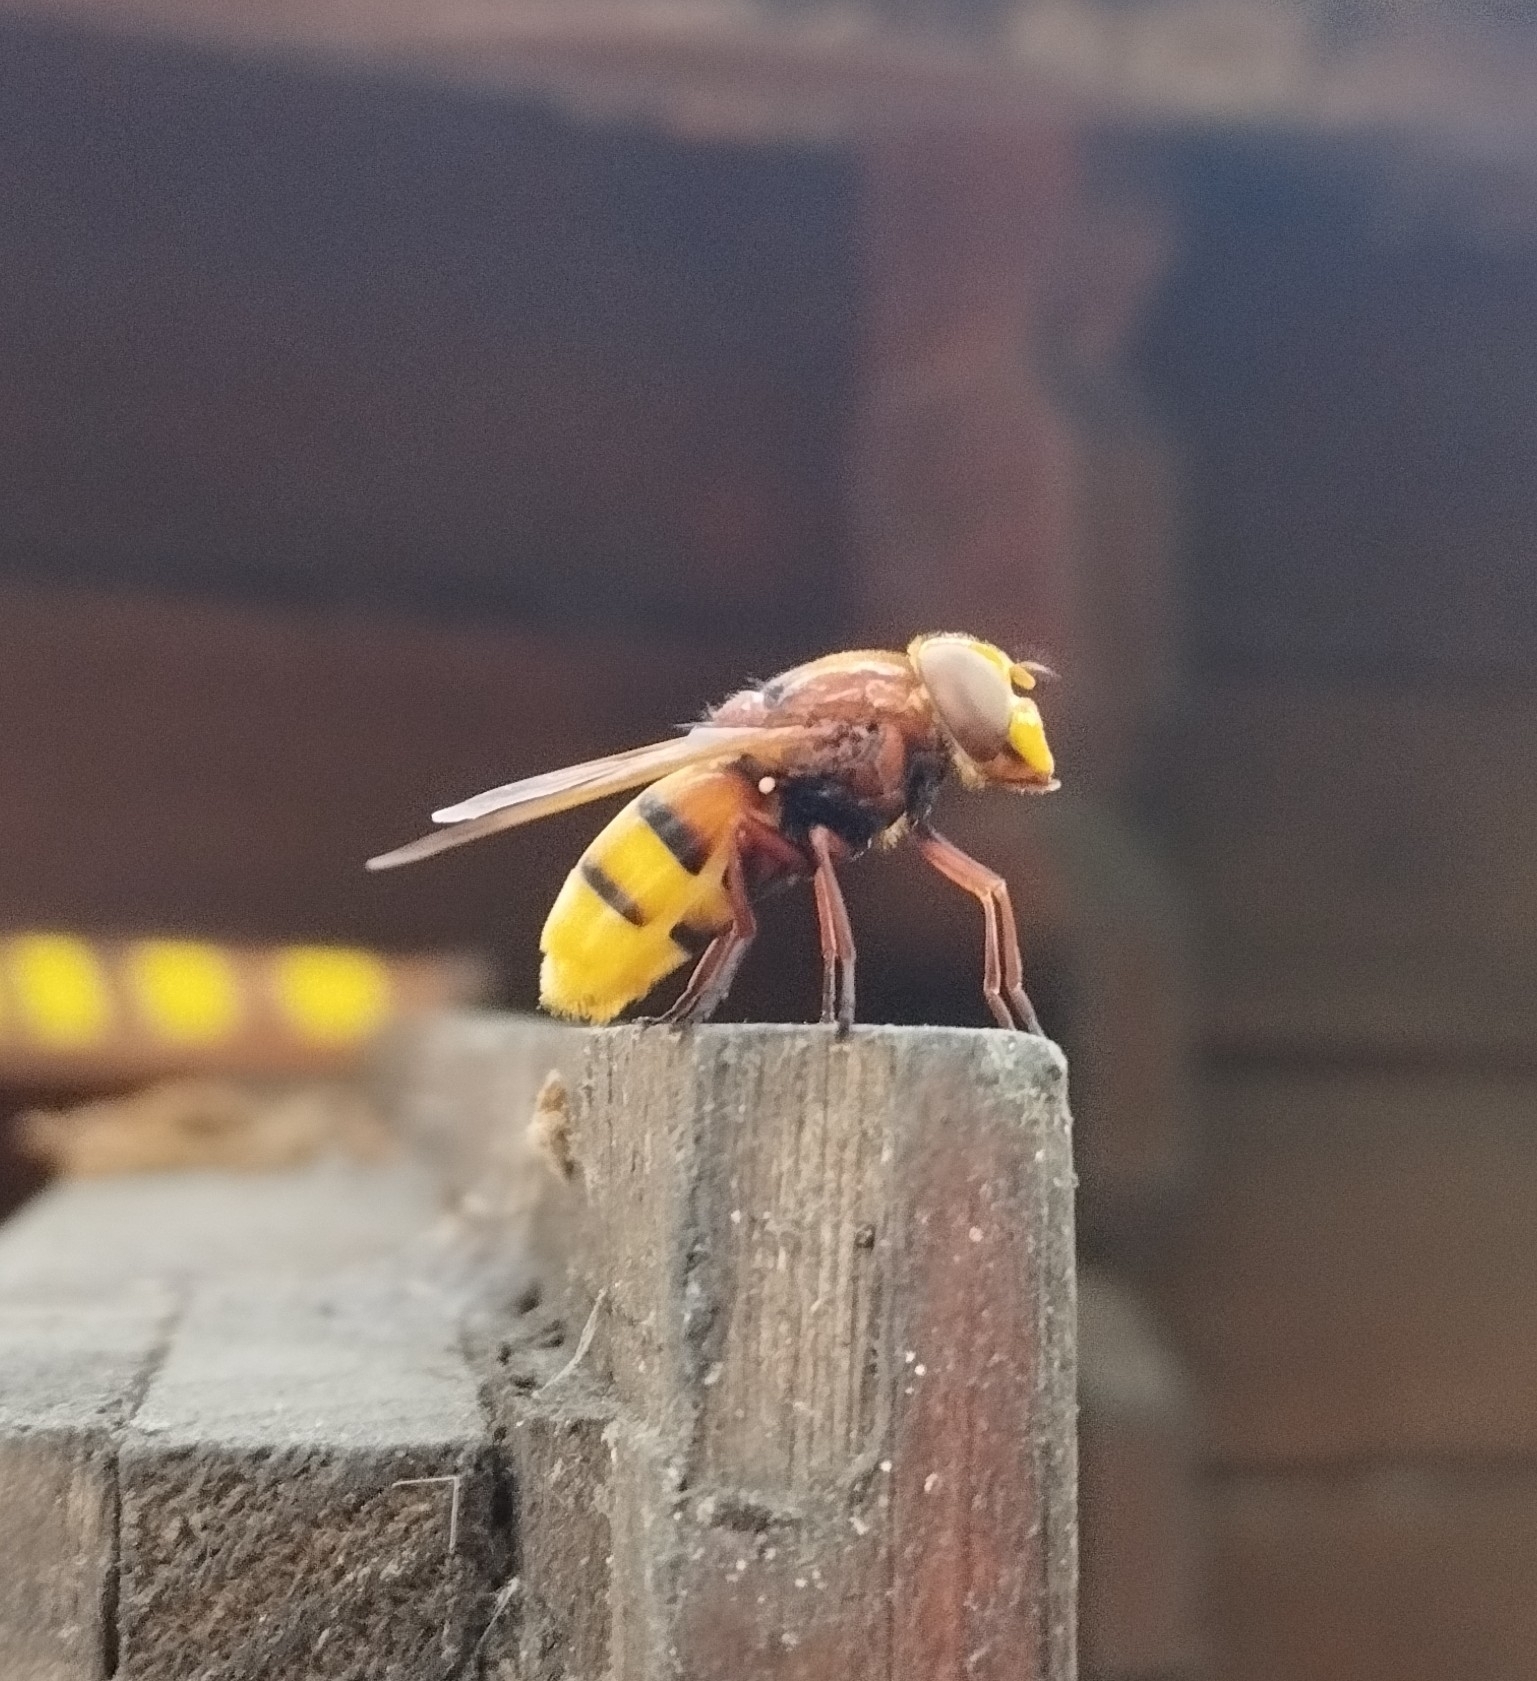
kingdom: Animalia
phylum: Arthropoda
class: Insecta
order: Diptera
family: Syrphidae
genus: Volucella
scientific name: Volucella zonaria
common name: Hornet hoverfly
